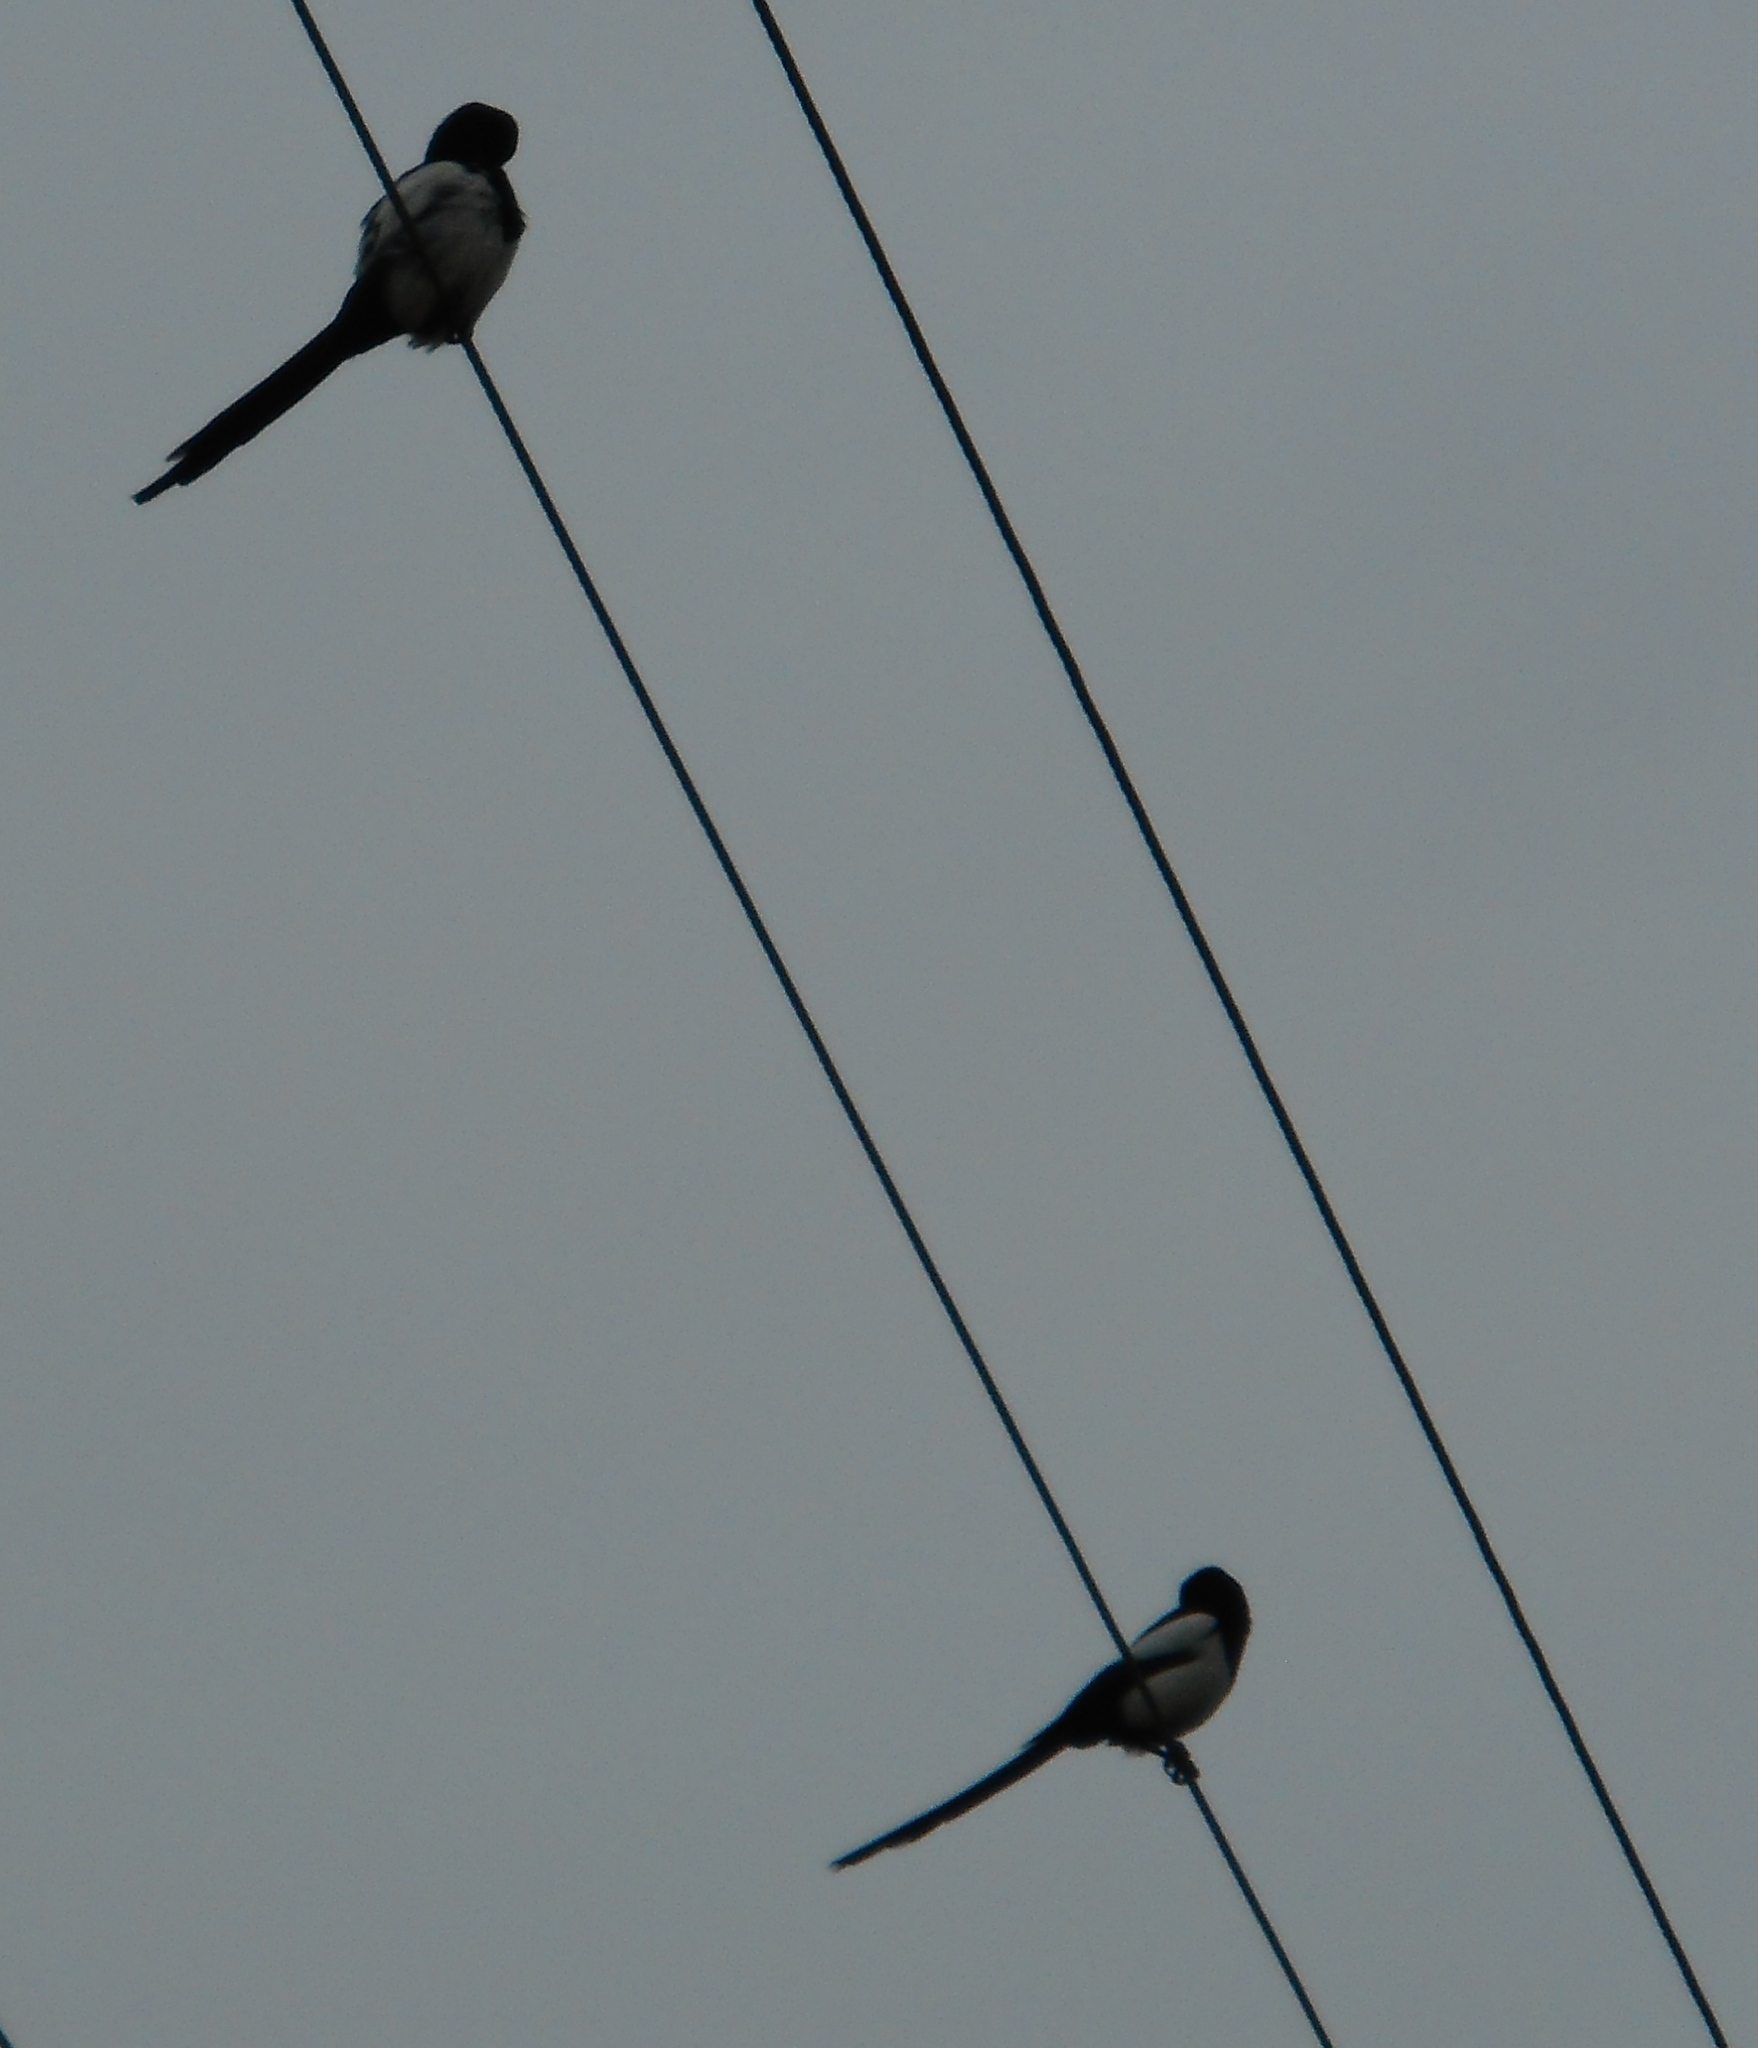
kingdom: Animalia
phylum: Chordata
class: Aves
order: Passeriformes
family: Corvidae
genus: Pica
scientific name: Pica pica
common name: Eurasian magpie
